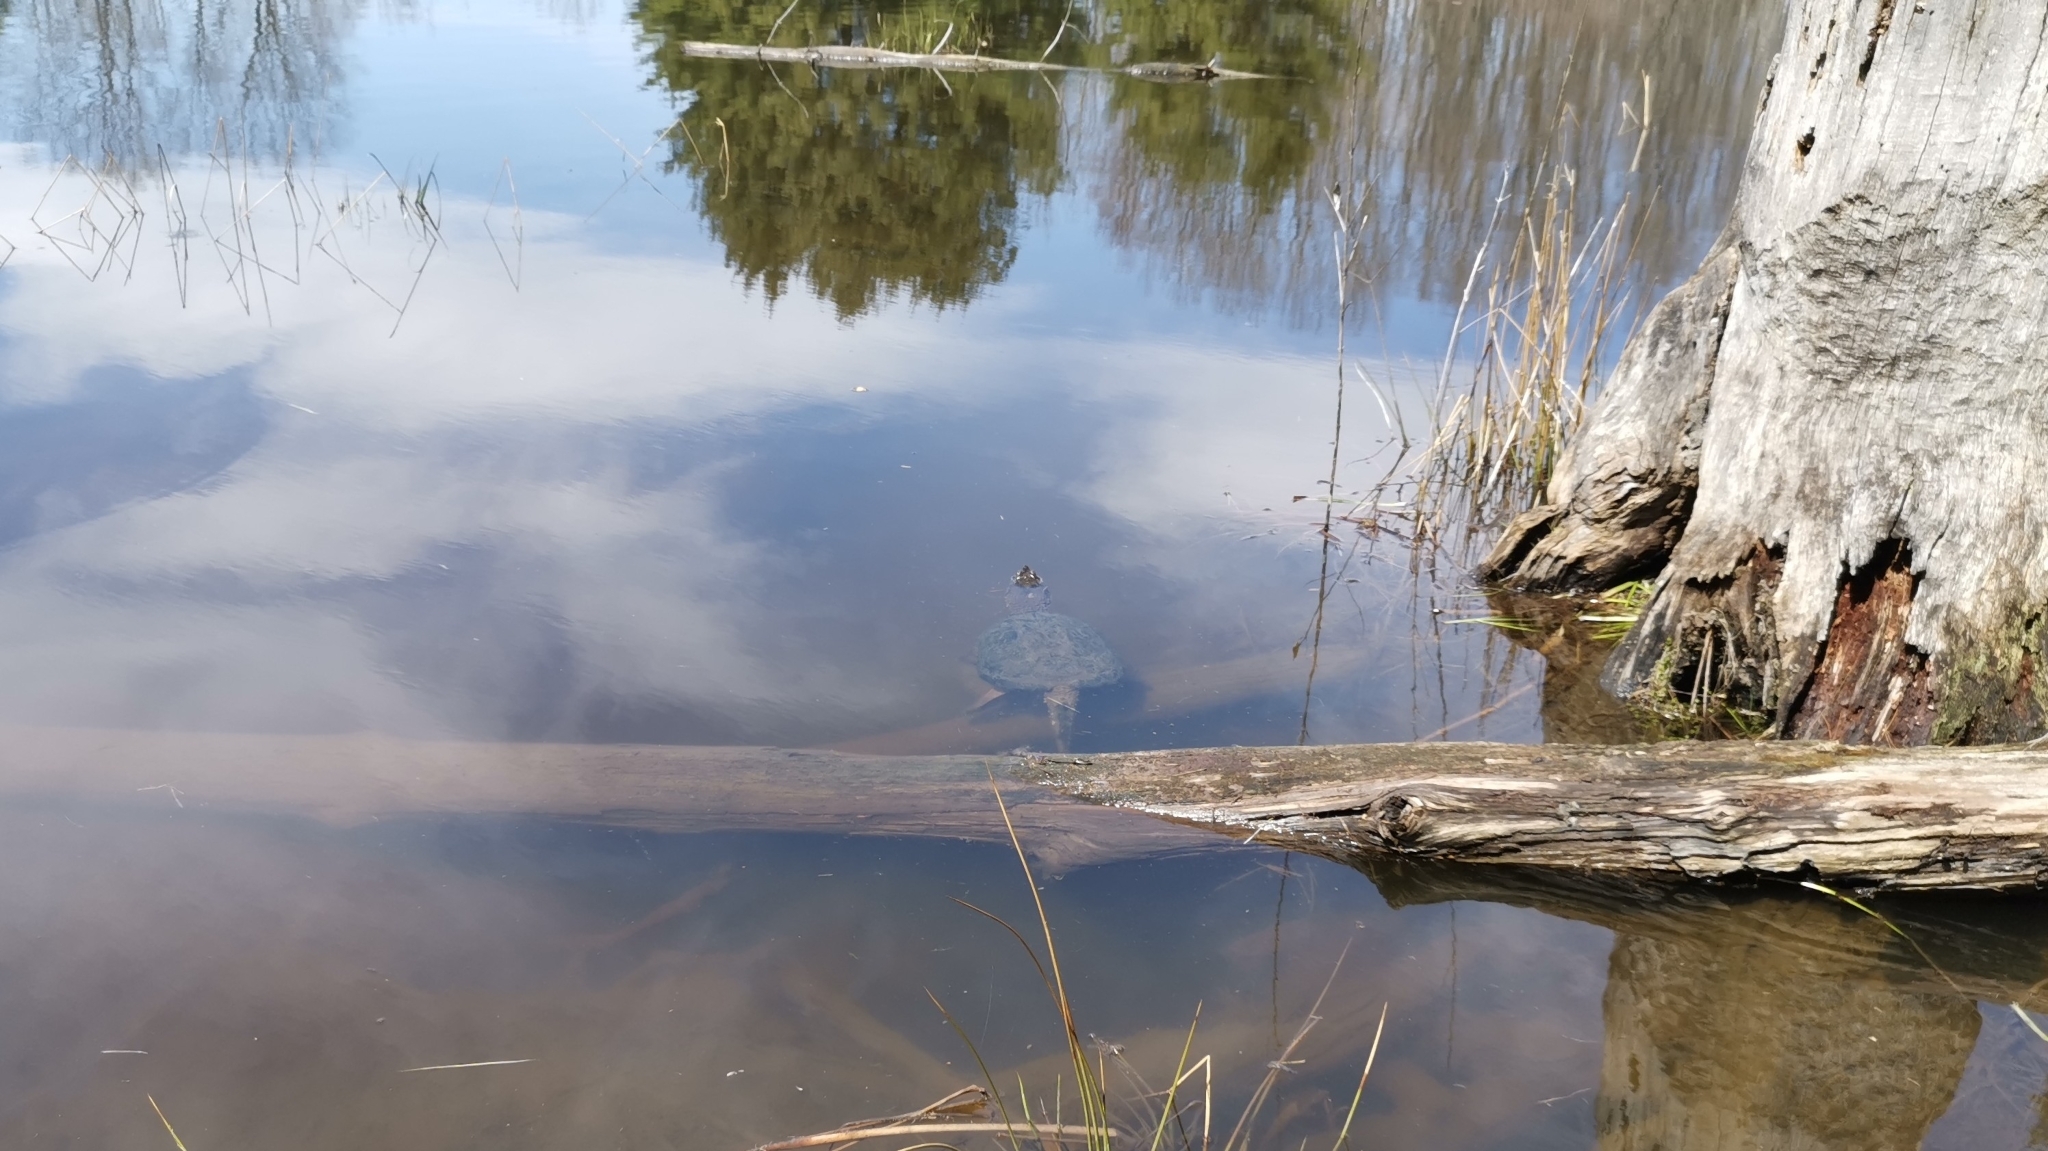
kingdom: Animalia
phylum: Chordata
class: Testudines
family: Chelydridae
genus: Chelydra
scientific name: Chelydra serpentina
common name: Common snapping turtle
